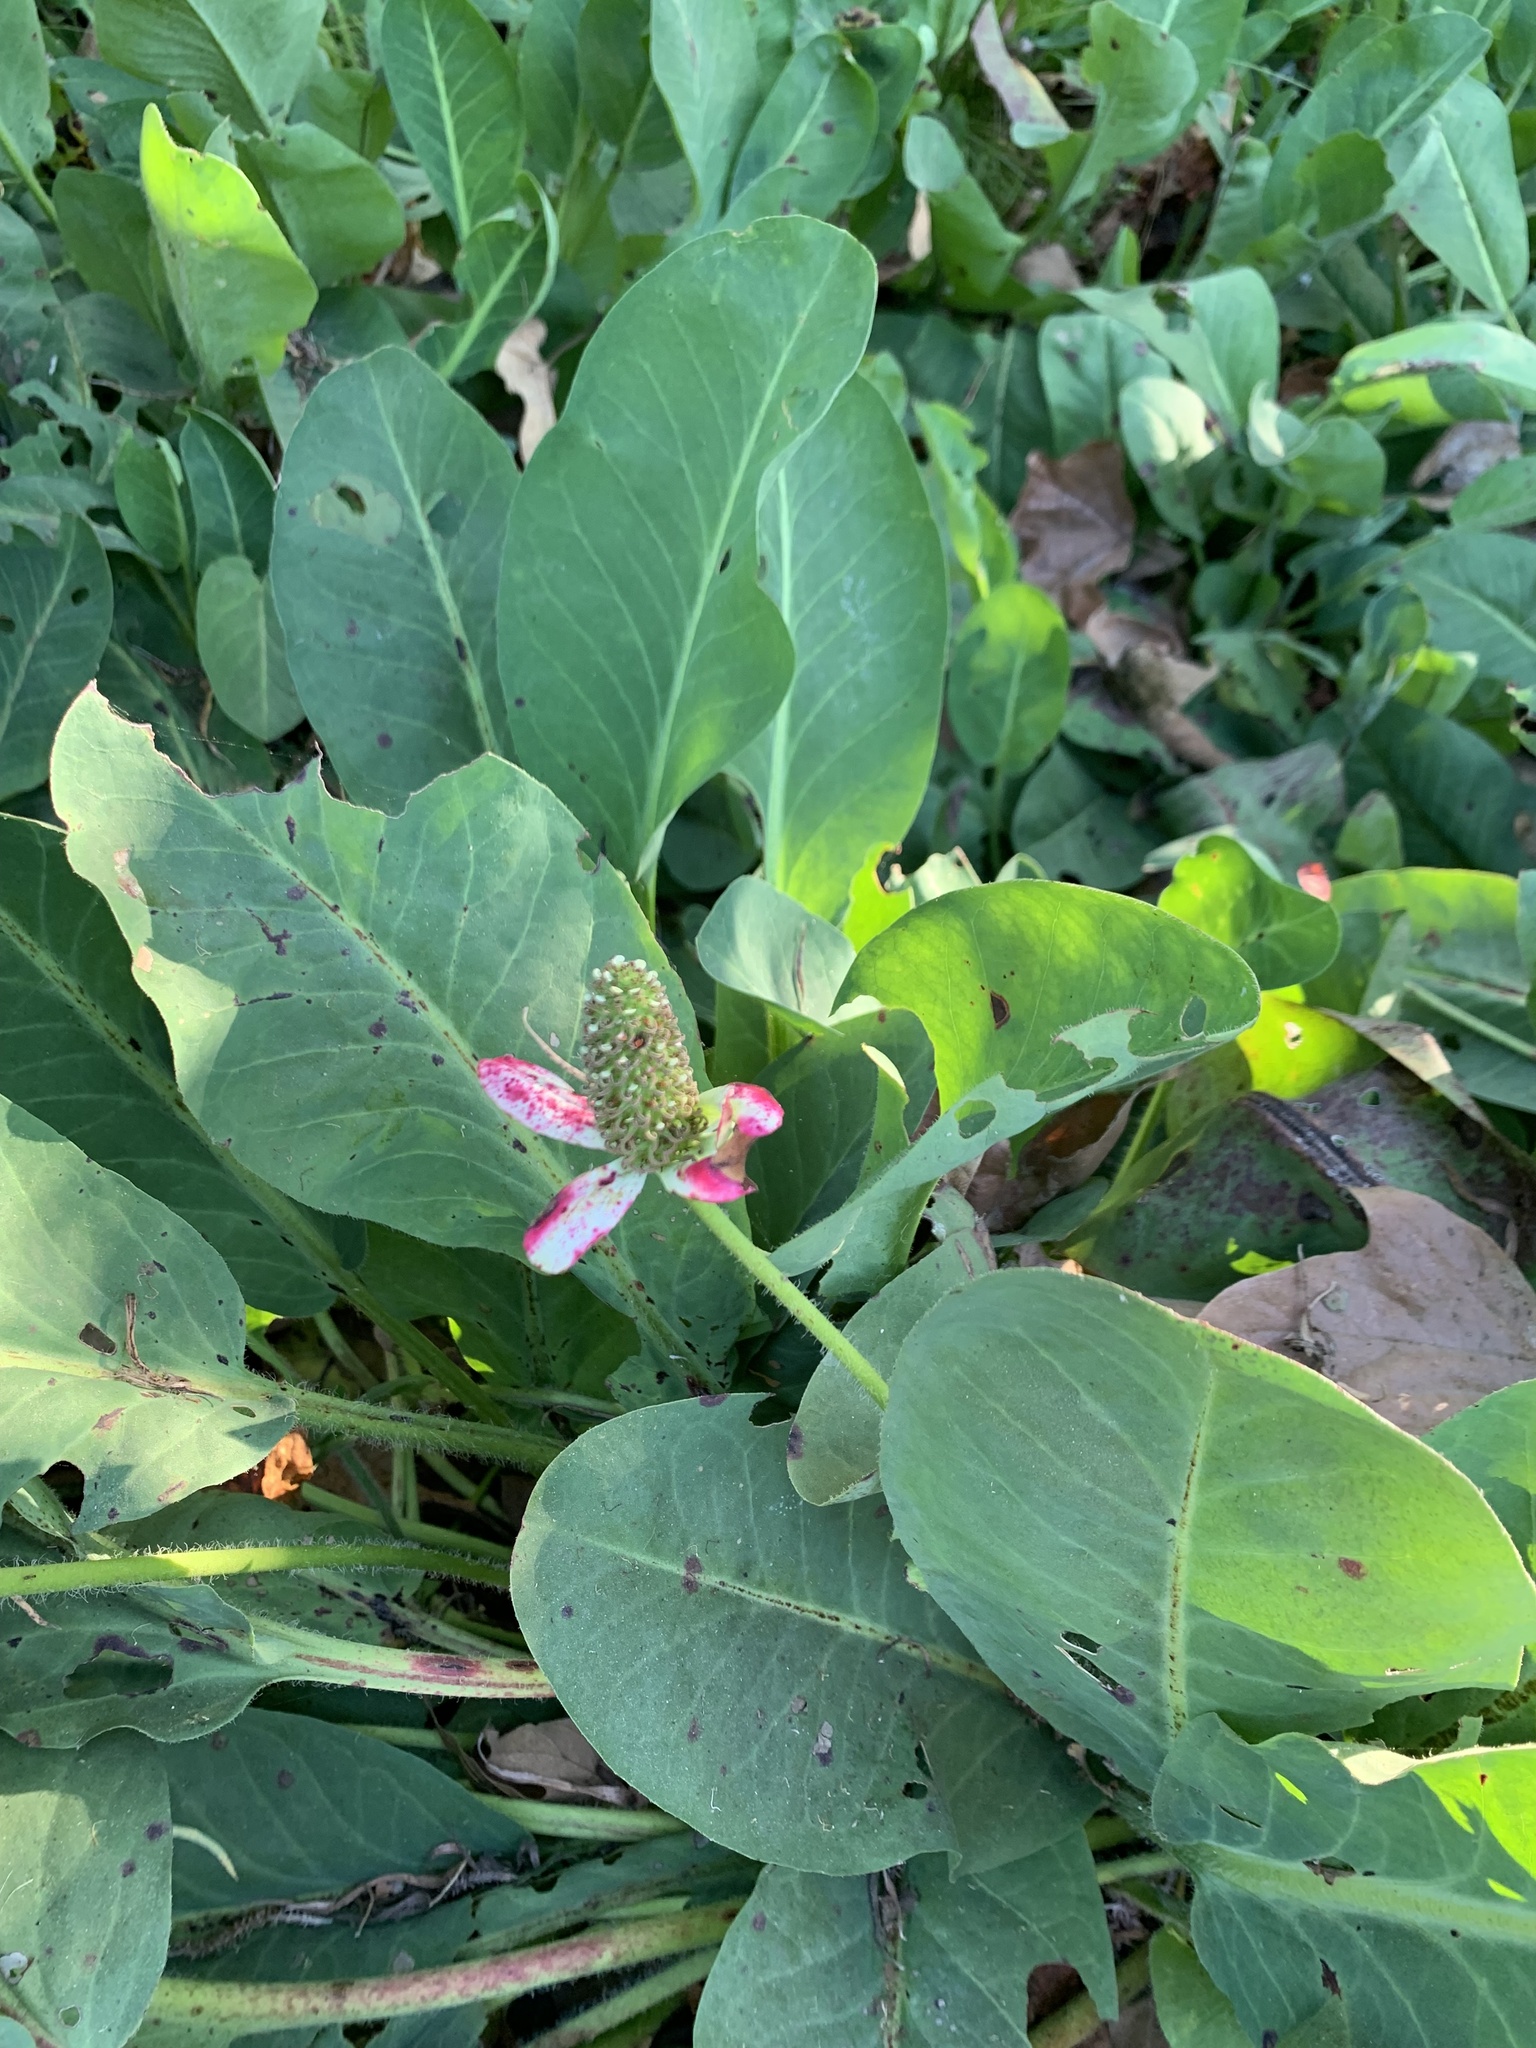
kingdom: Plantae
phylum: Tracheophyta
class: Magnoliopsida
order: Piperales
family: Saururaceae
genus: Anemopsis
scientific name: Anemopsis californica
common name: Apache-beads
